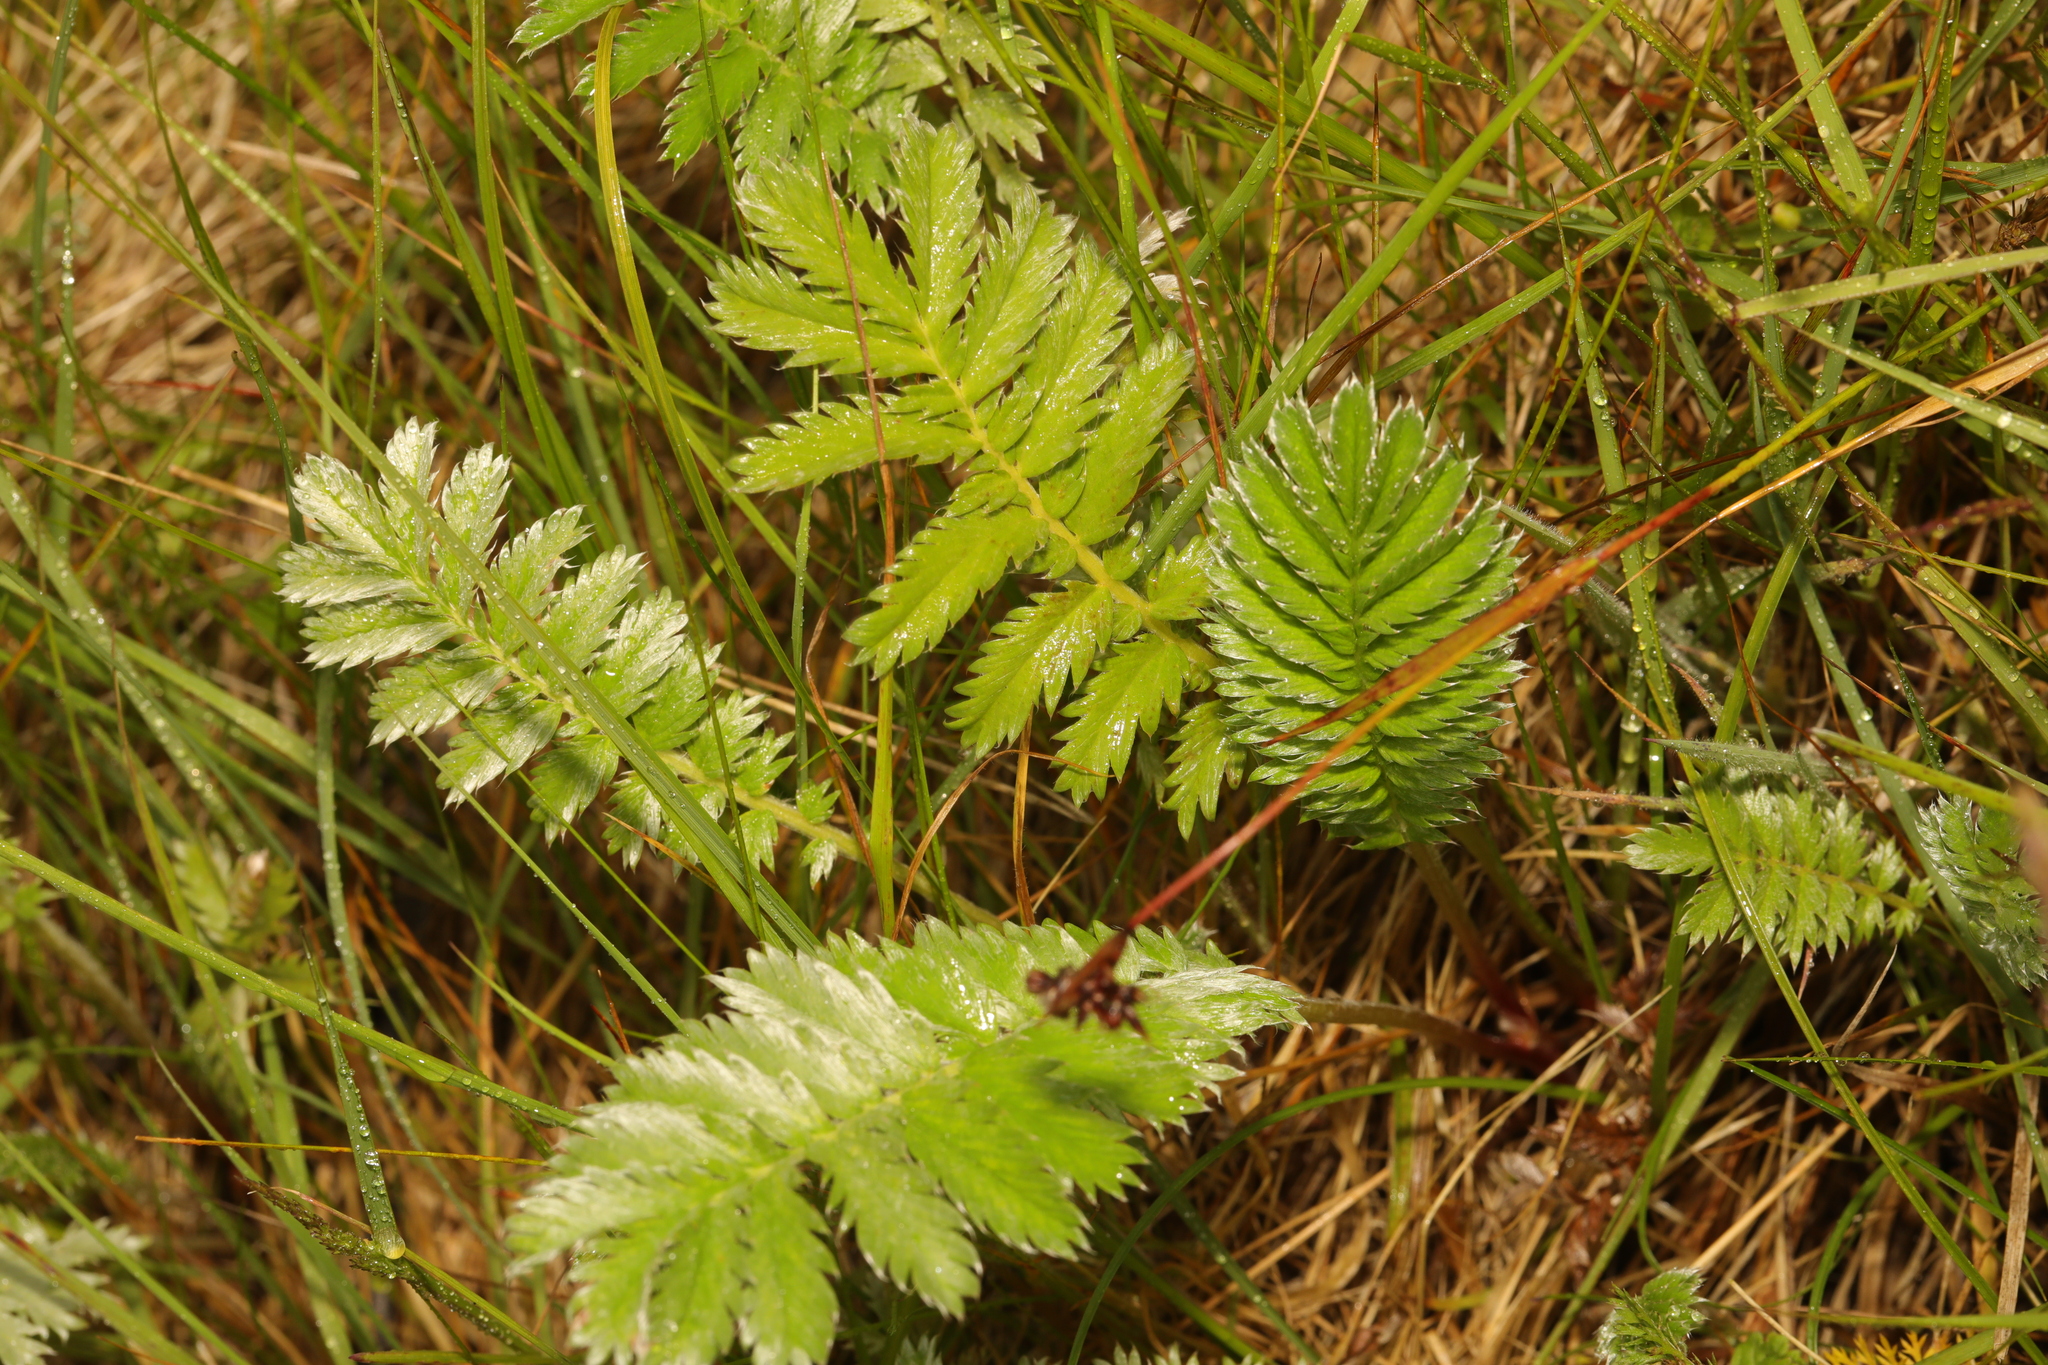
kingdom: Plantae
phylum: Tracheophyta
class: Magnoliopsida
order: Rosales
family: Rosaceae
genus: Argentina
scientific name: Argentina anserina
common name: Common silverweed
